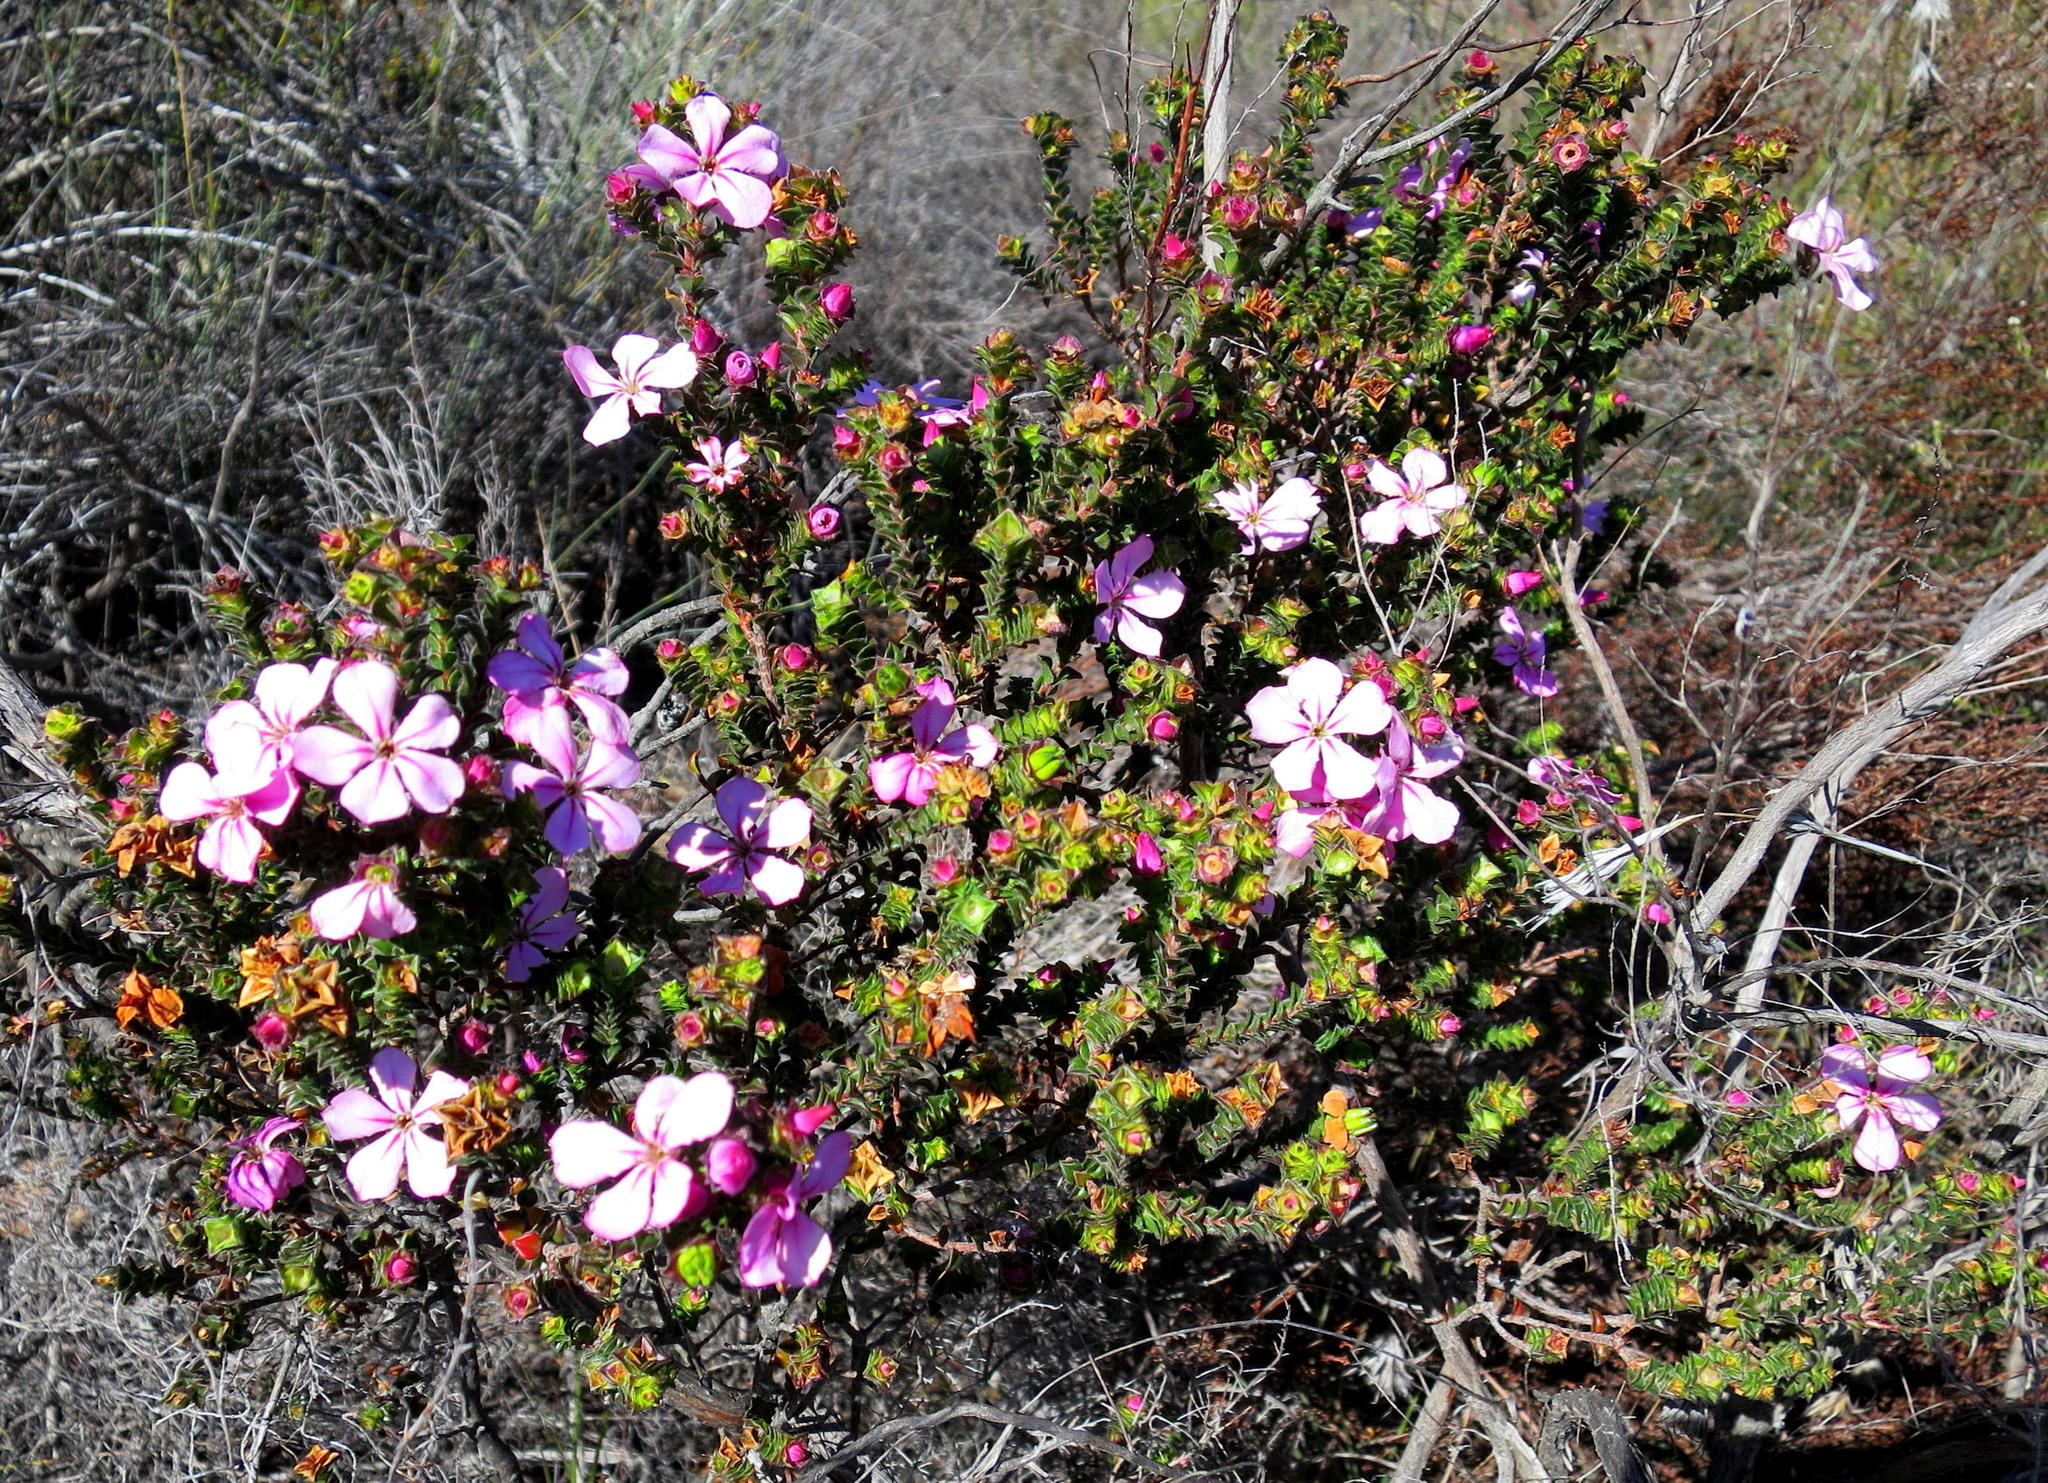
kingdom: Plantae
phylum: Tracheophyta
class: Magnoliopsida
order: Sapindales
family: Rutaceae
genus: Acmadenia
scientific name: Acmadenia tetragona
